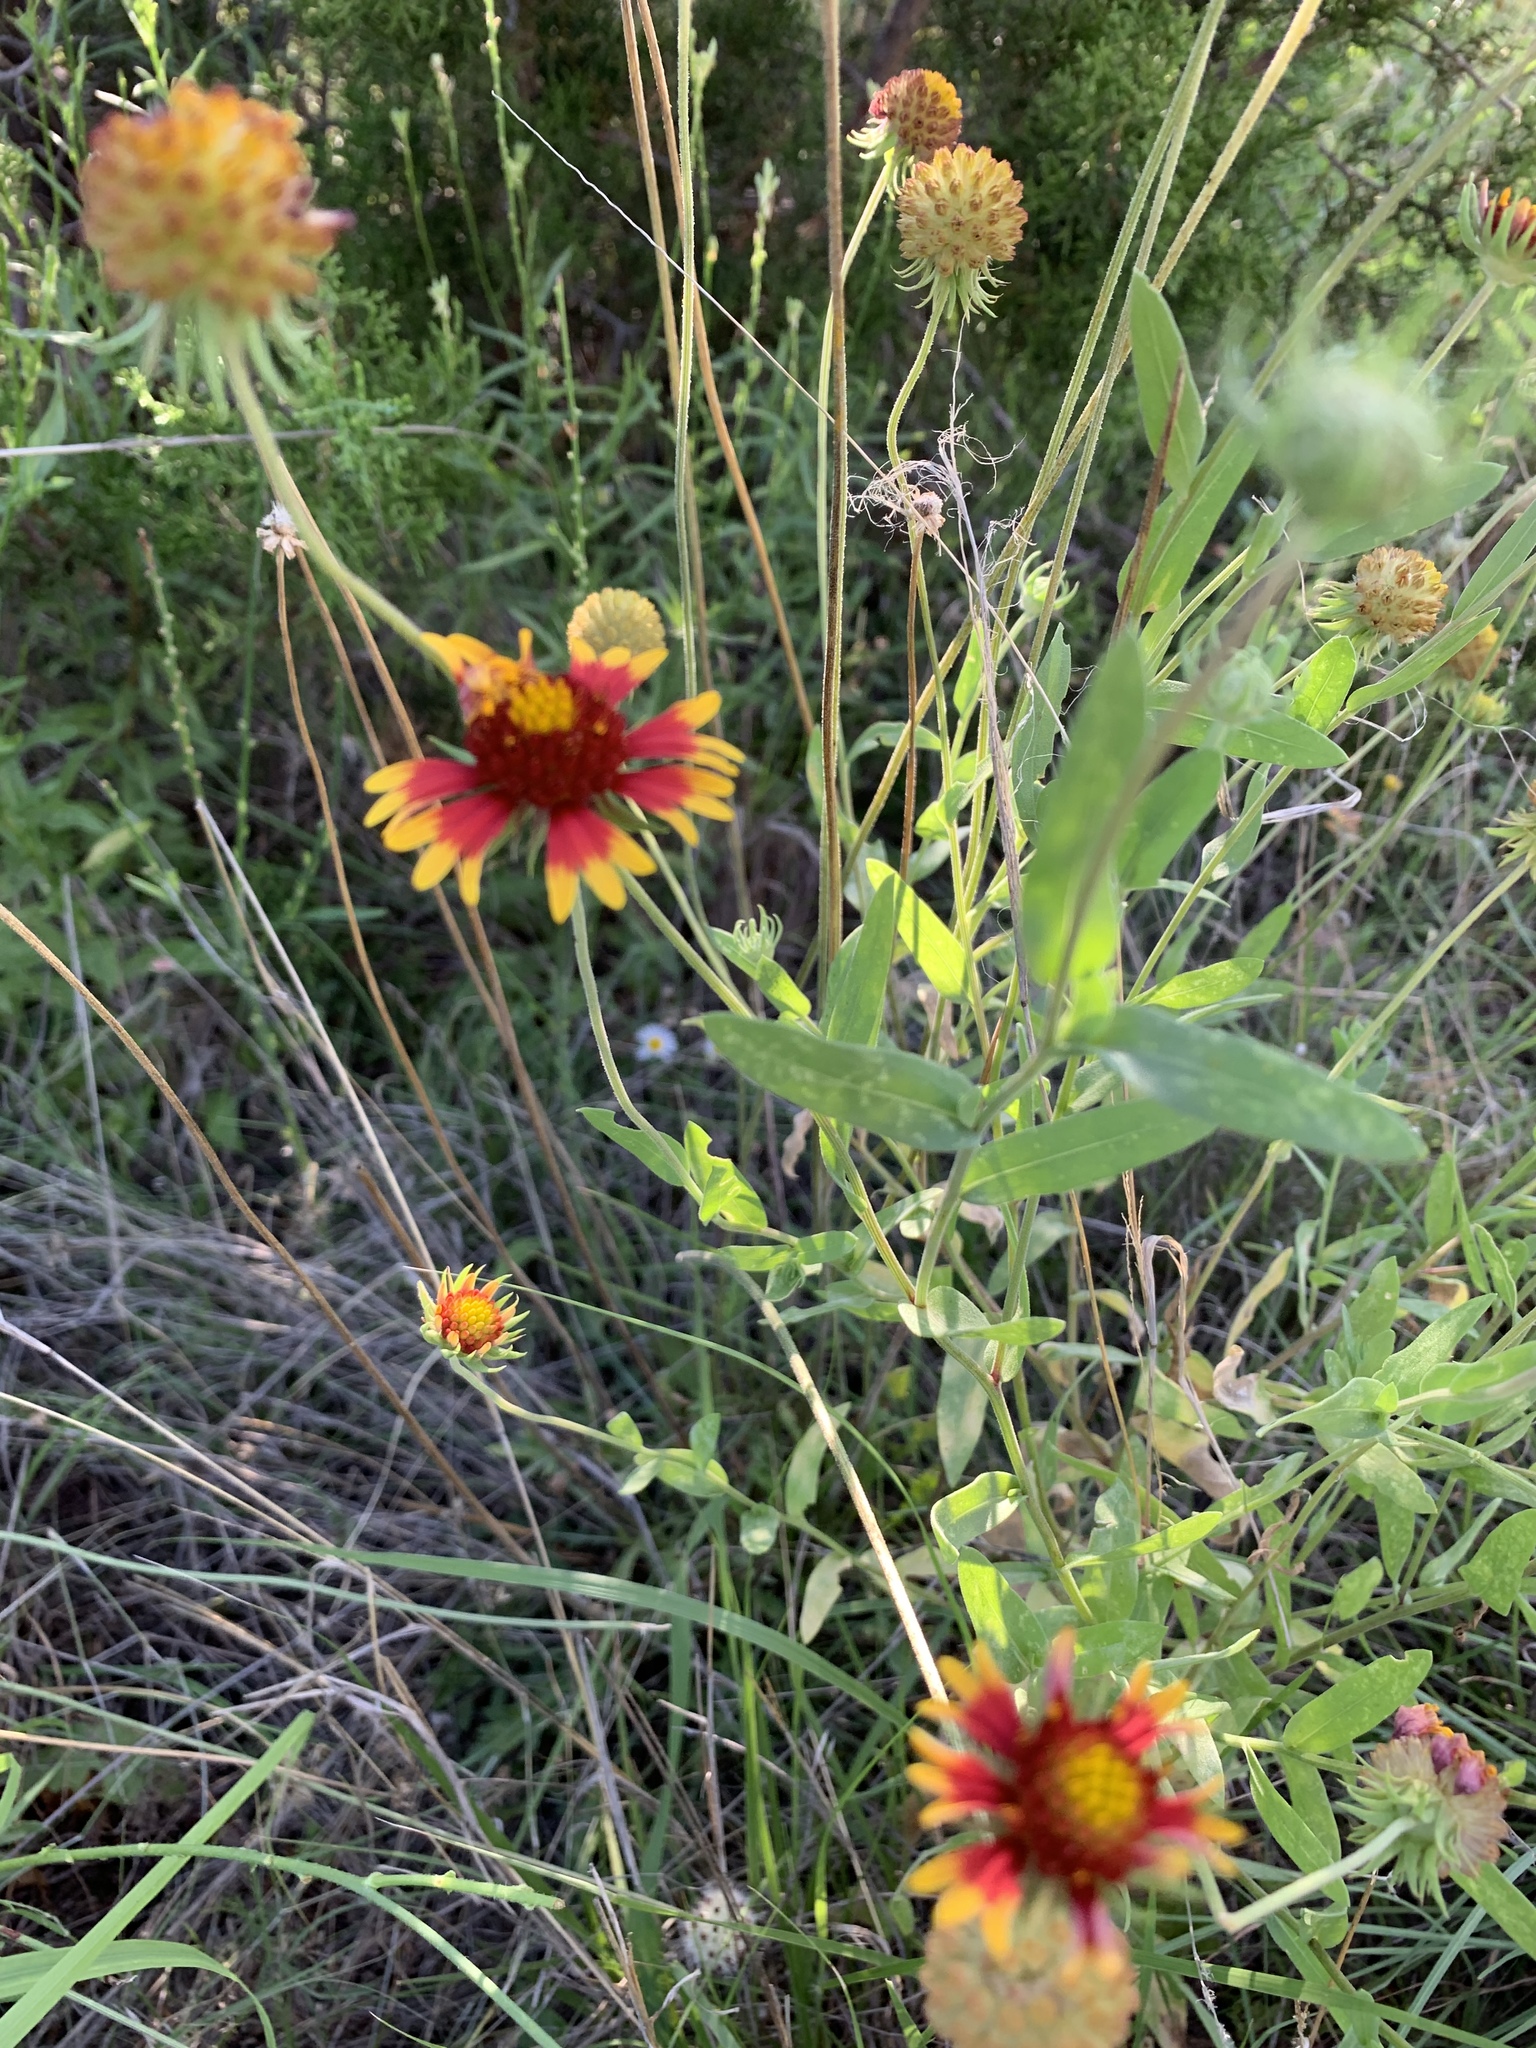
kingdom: Plantae
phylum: Tracheophyta
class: Magnoliopsida
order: Asterales
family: Asteraceae
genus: Gaillardia
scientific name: Gaillardia pulchella
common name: Firewheel
